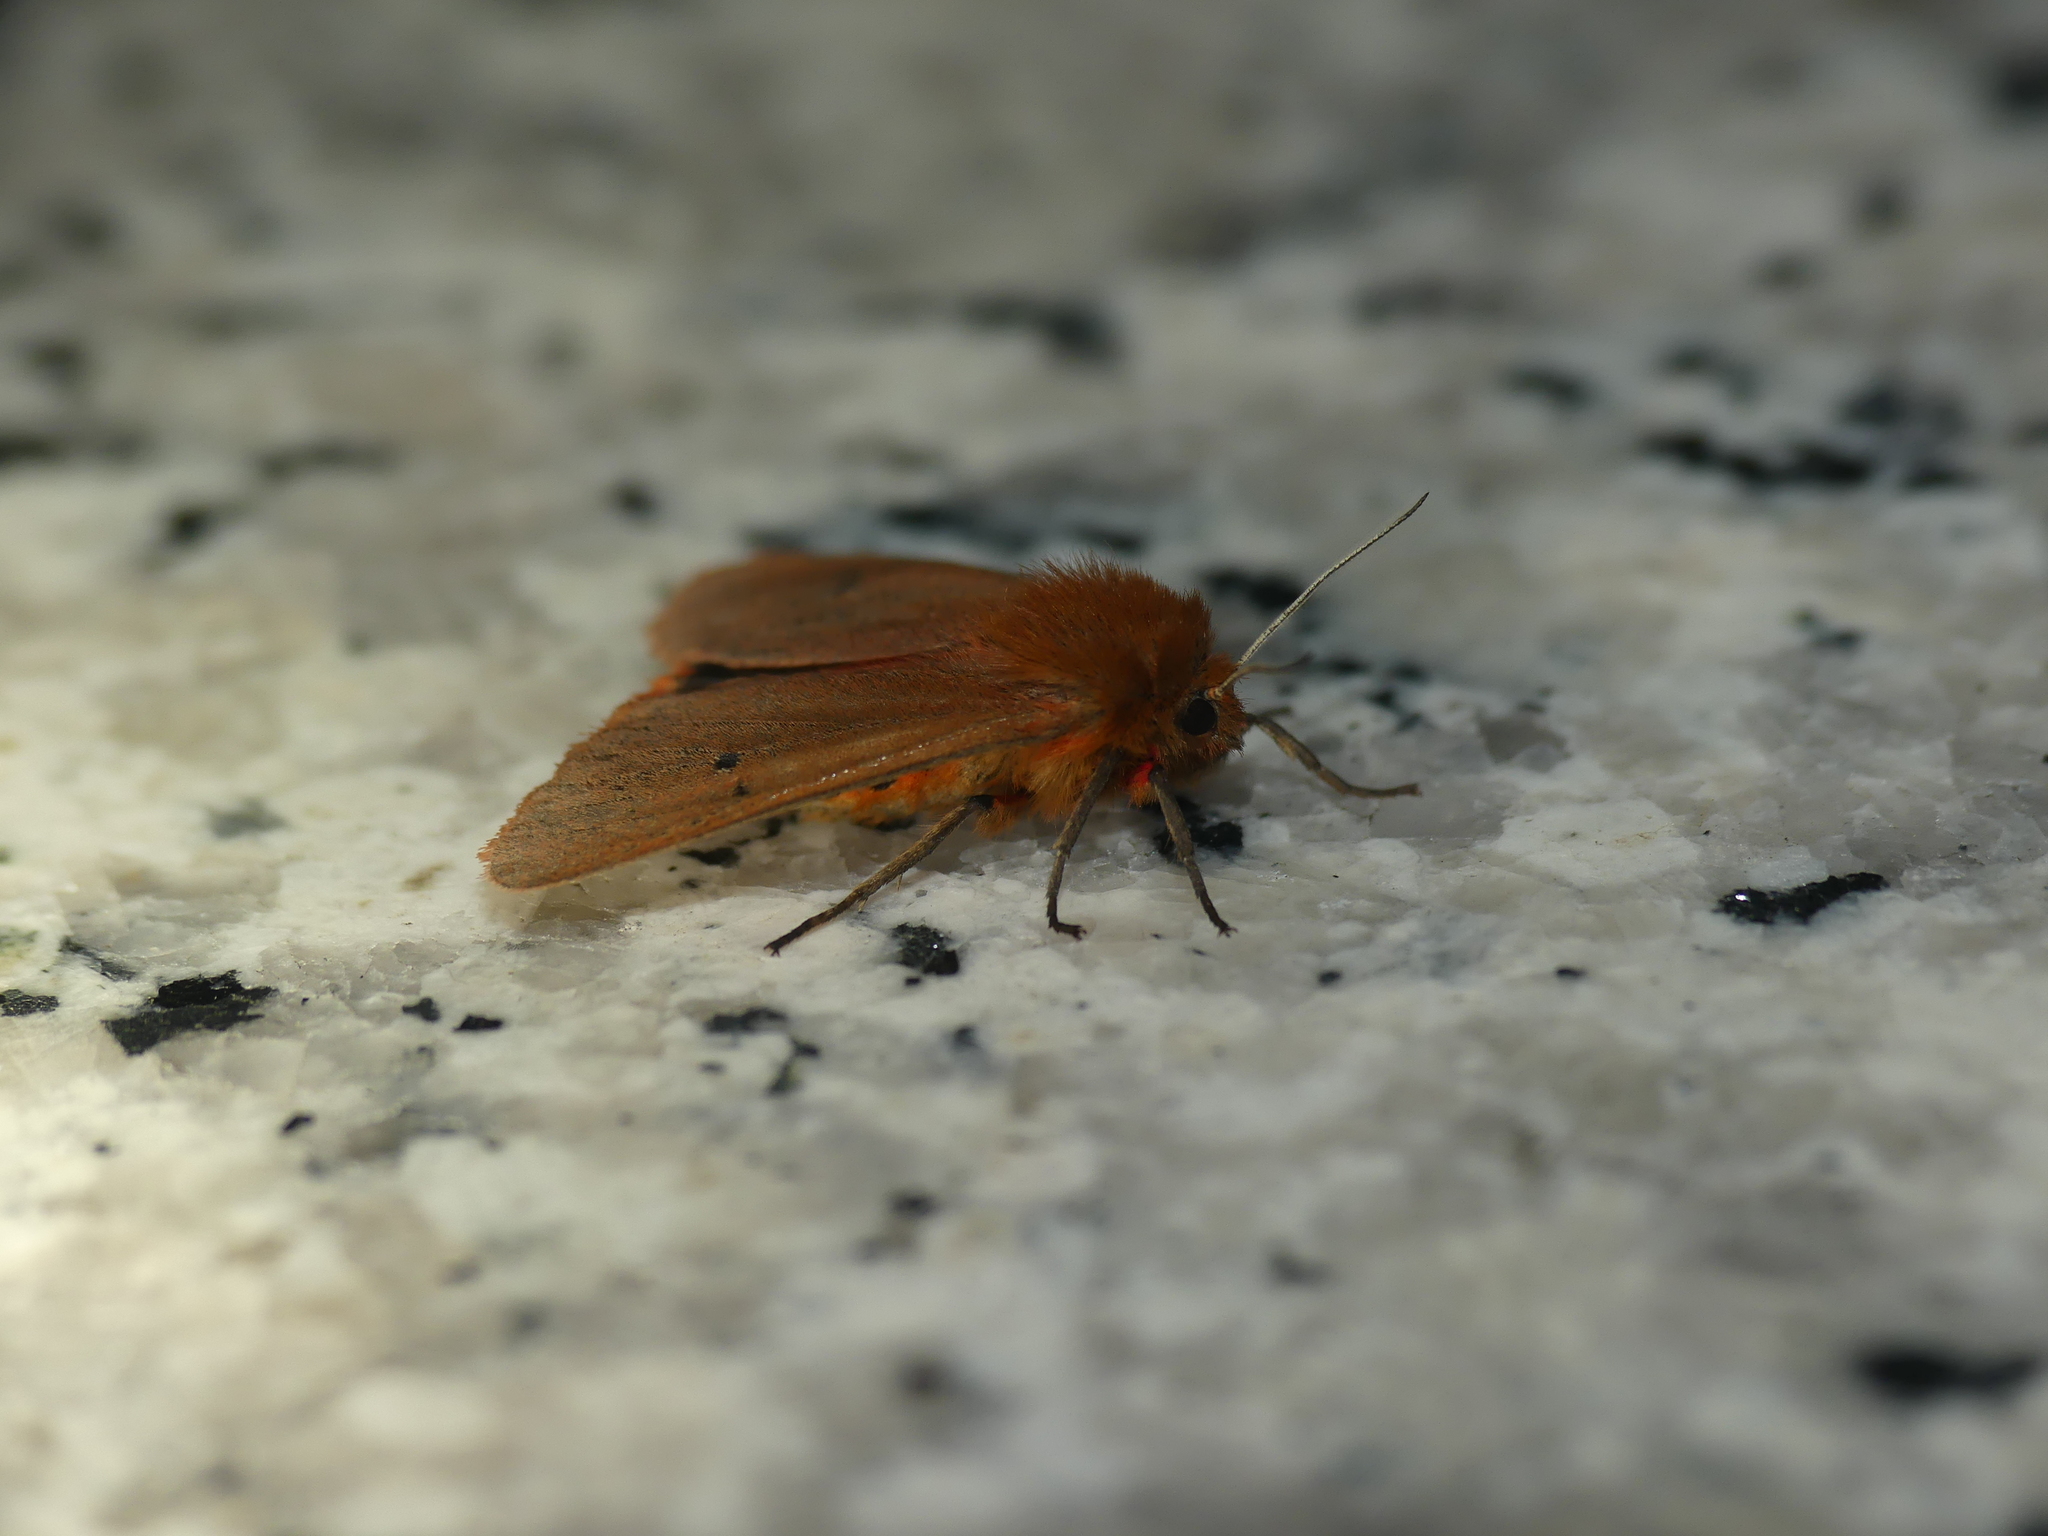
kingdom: Animalia
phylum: Arthropoda
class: Insecta
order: Lepidoptera
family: Erebidae
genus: Phragmatobia
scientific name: Phragmatobia fuliginosa
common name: Ruby tiger
